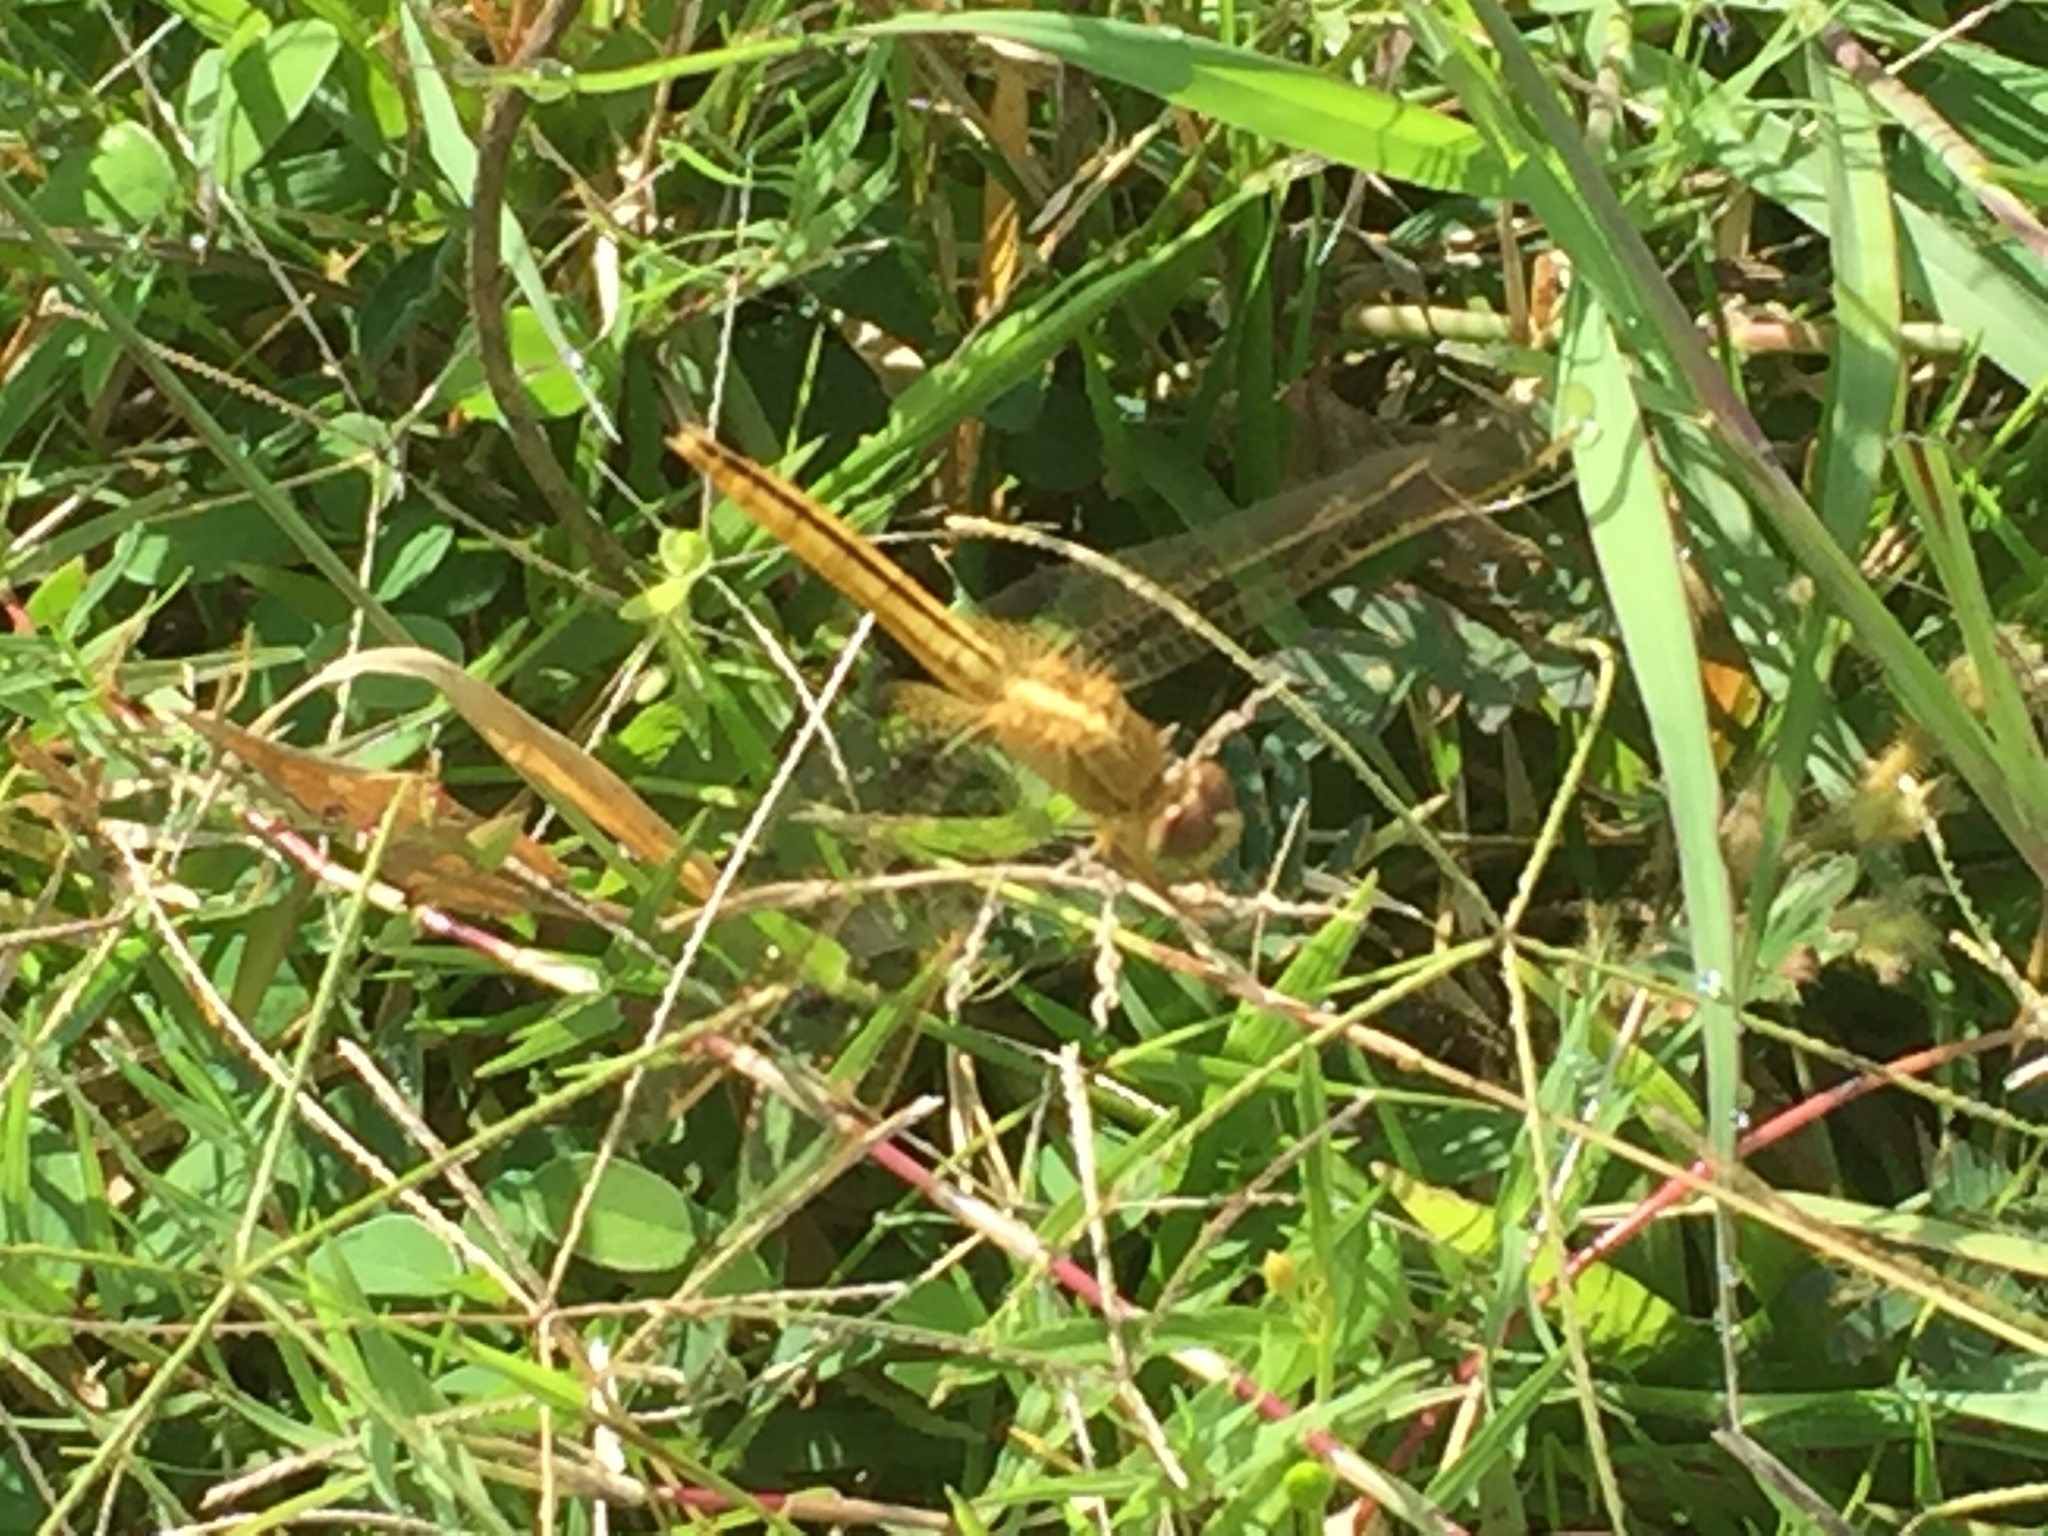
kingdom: Animalia
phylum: Arthropoda
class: Insecta
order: Odonata
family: Libellulidae
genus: Crocothemis
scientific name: Crocothemis servilia
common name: Scarlet skimmer
